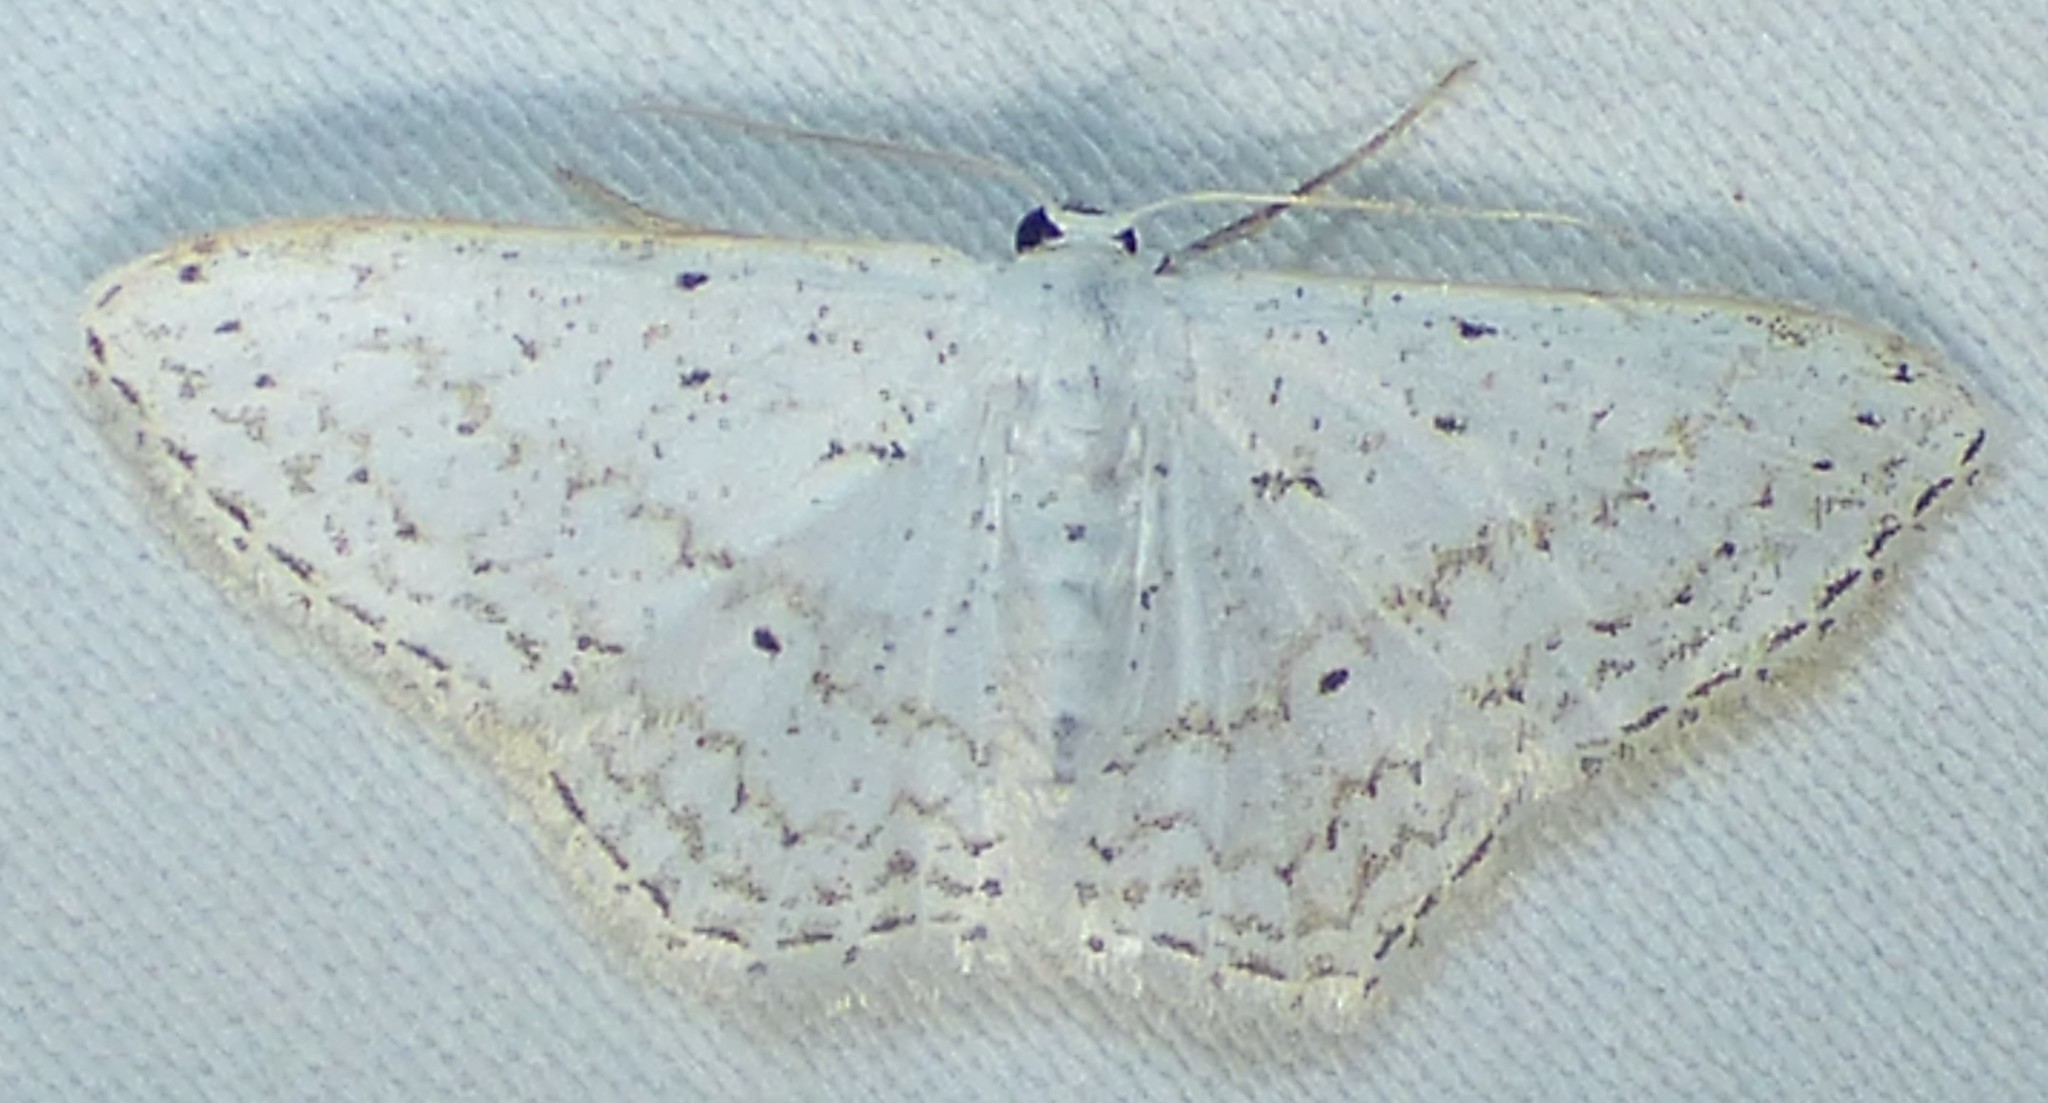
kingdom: Animalia
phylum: Arthropoda
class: Insecta
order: Lepidoptera
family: Geometridae
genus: Idaea
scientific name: Idaea tacturata
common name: Dot-lined wave
